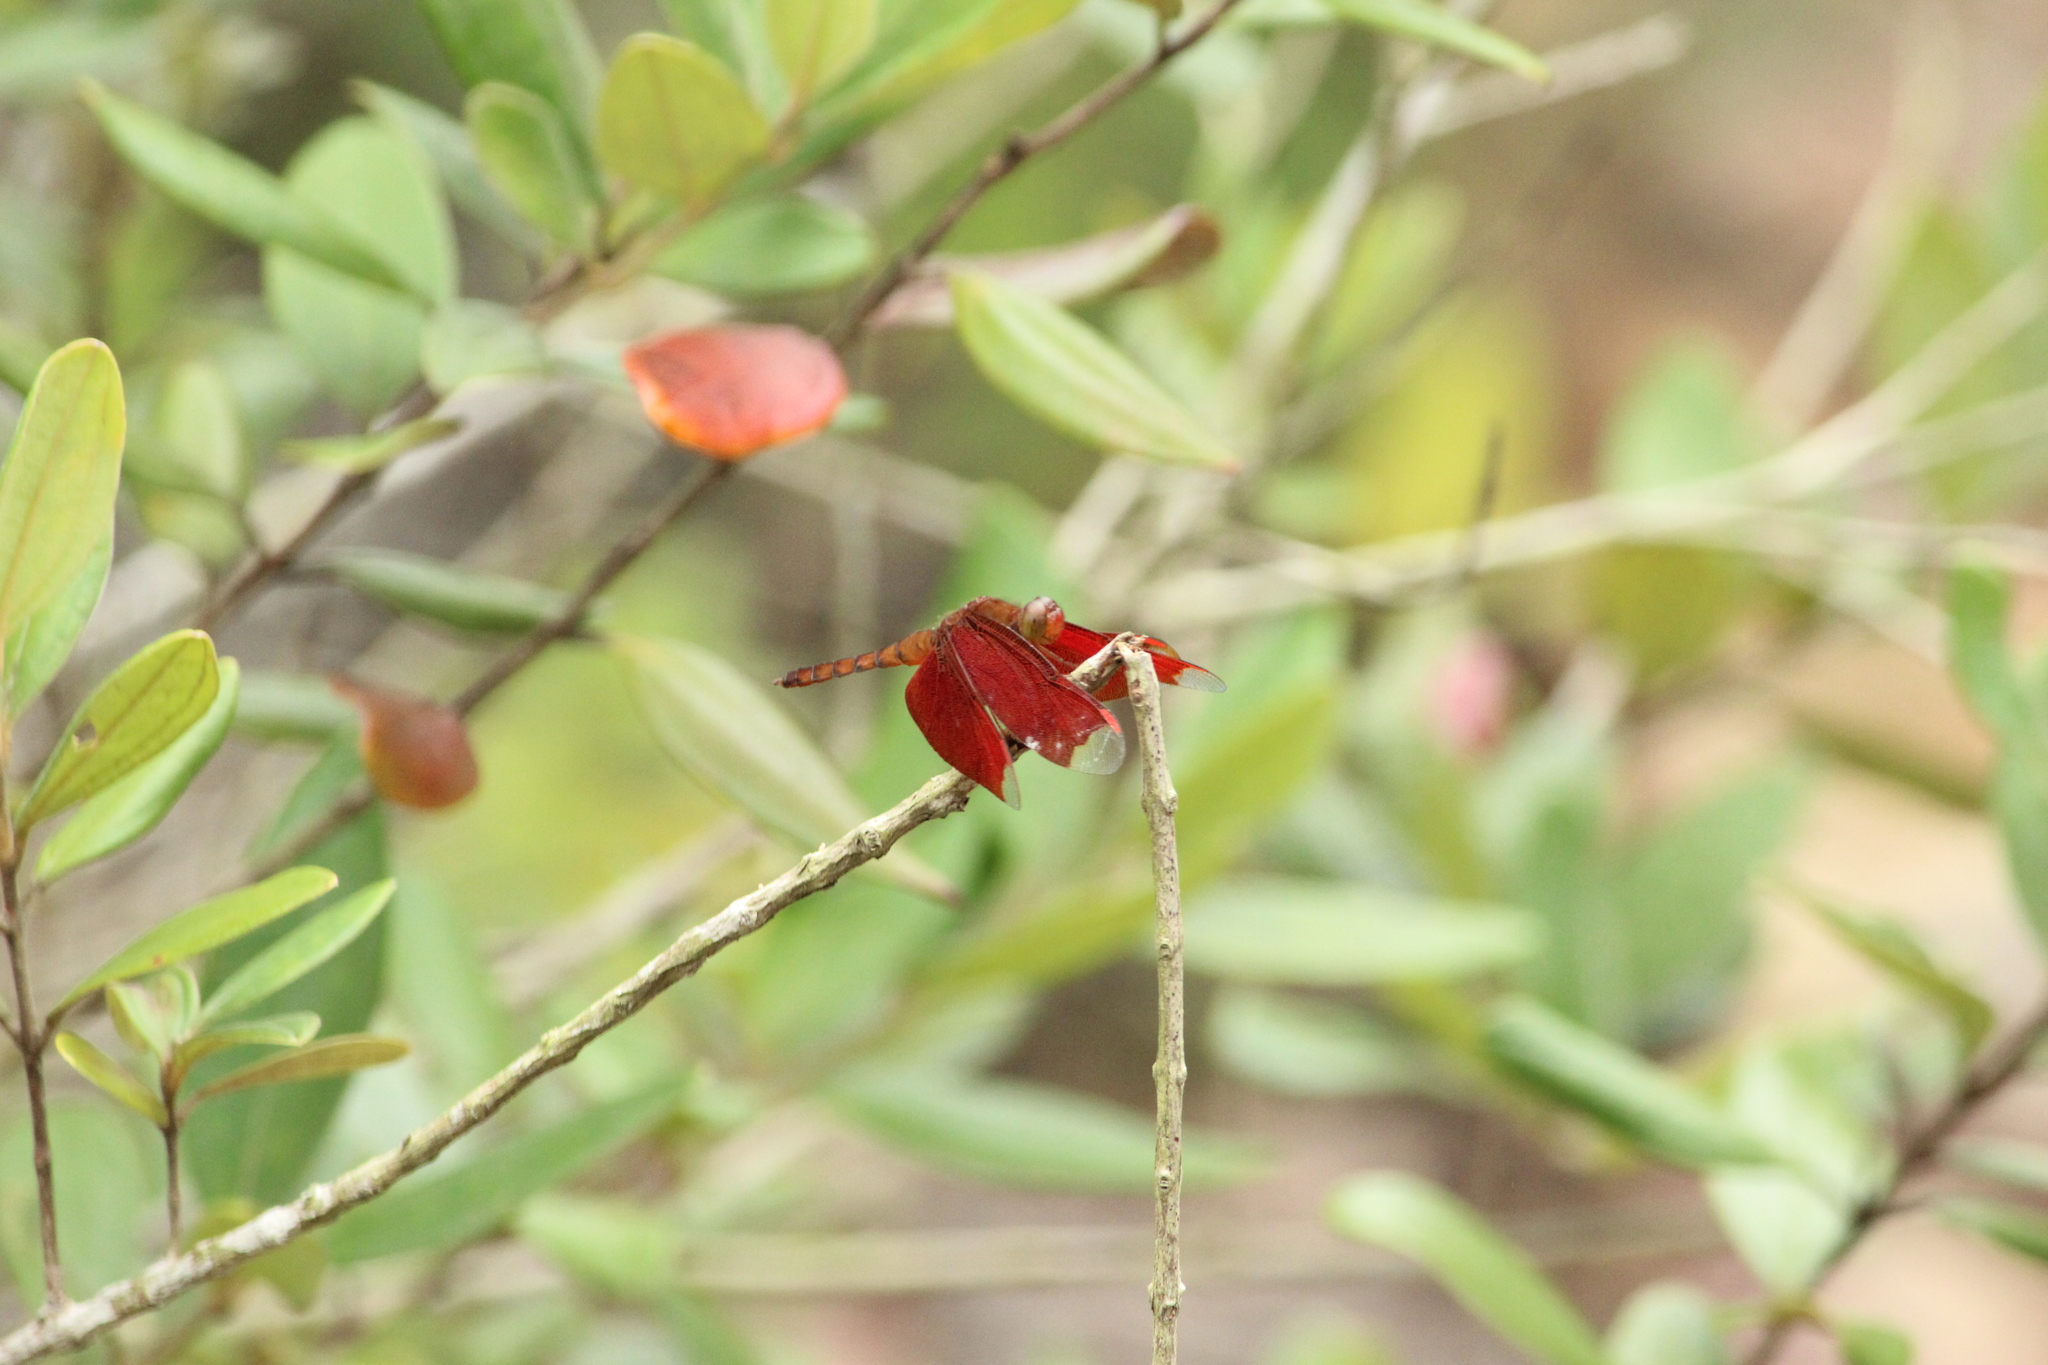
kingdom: Animalia
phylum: Arthropoda
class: Insecta
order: Odonata
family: Libellulidae
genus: Neurothemis
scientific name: Neurothemis fulvia
